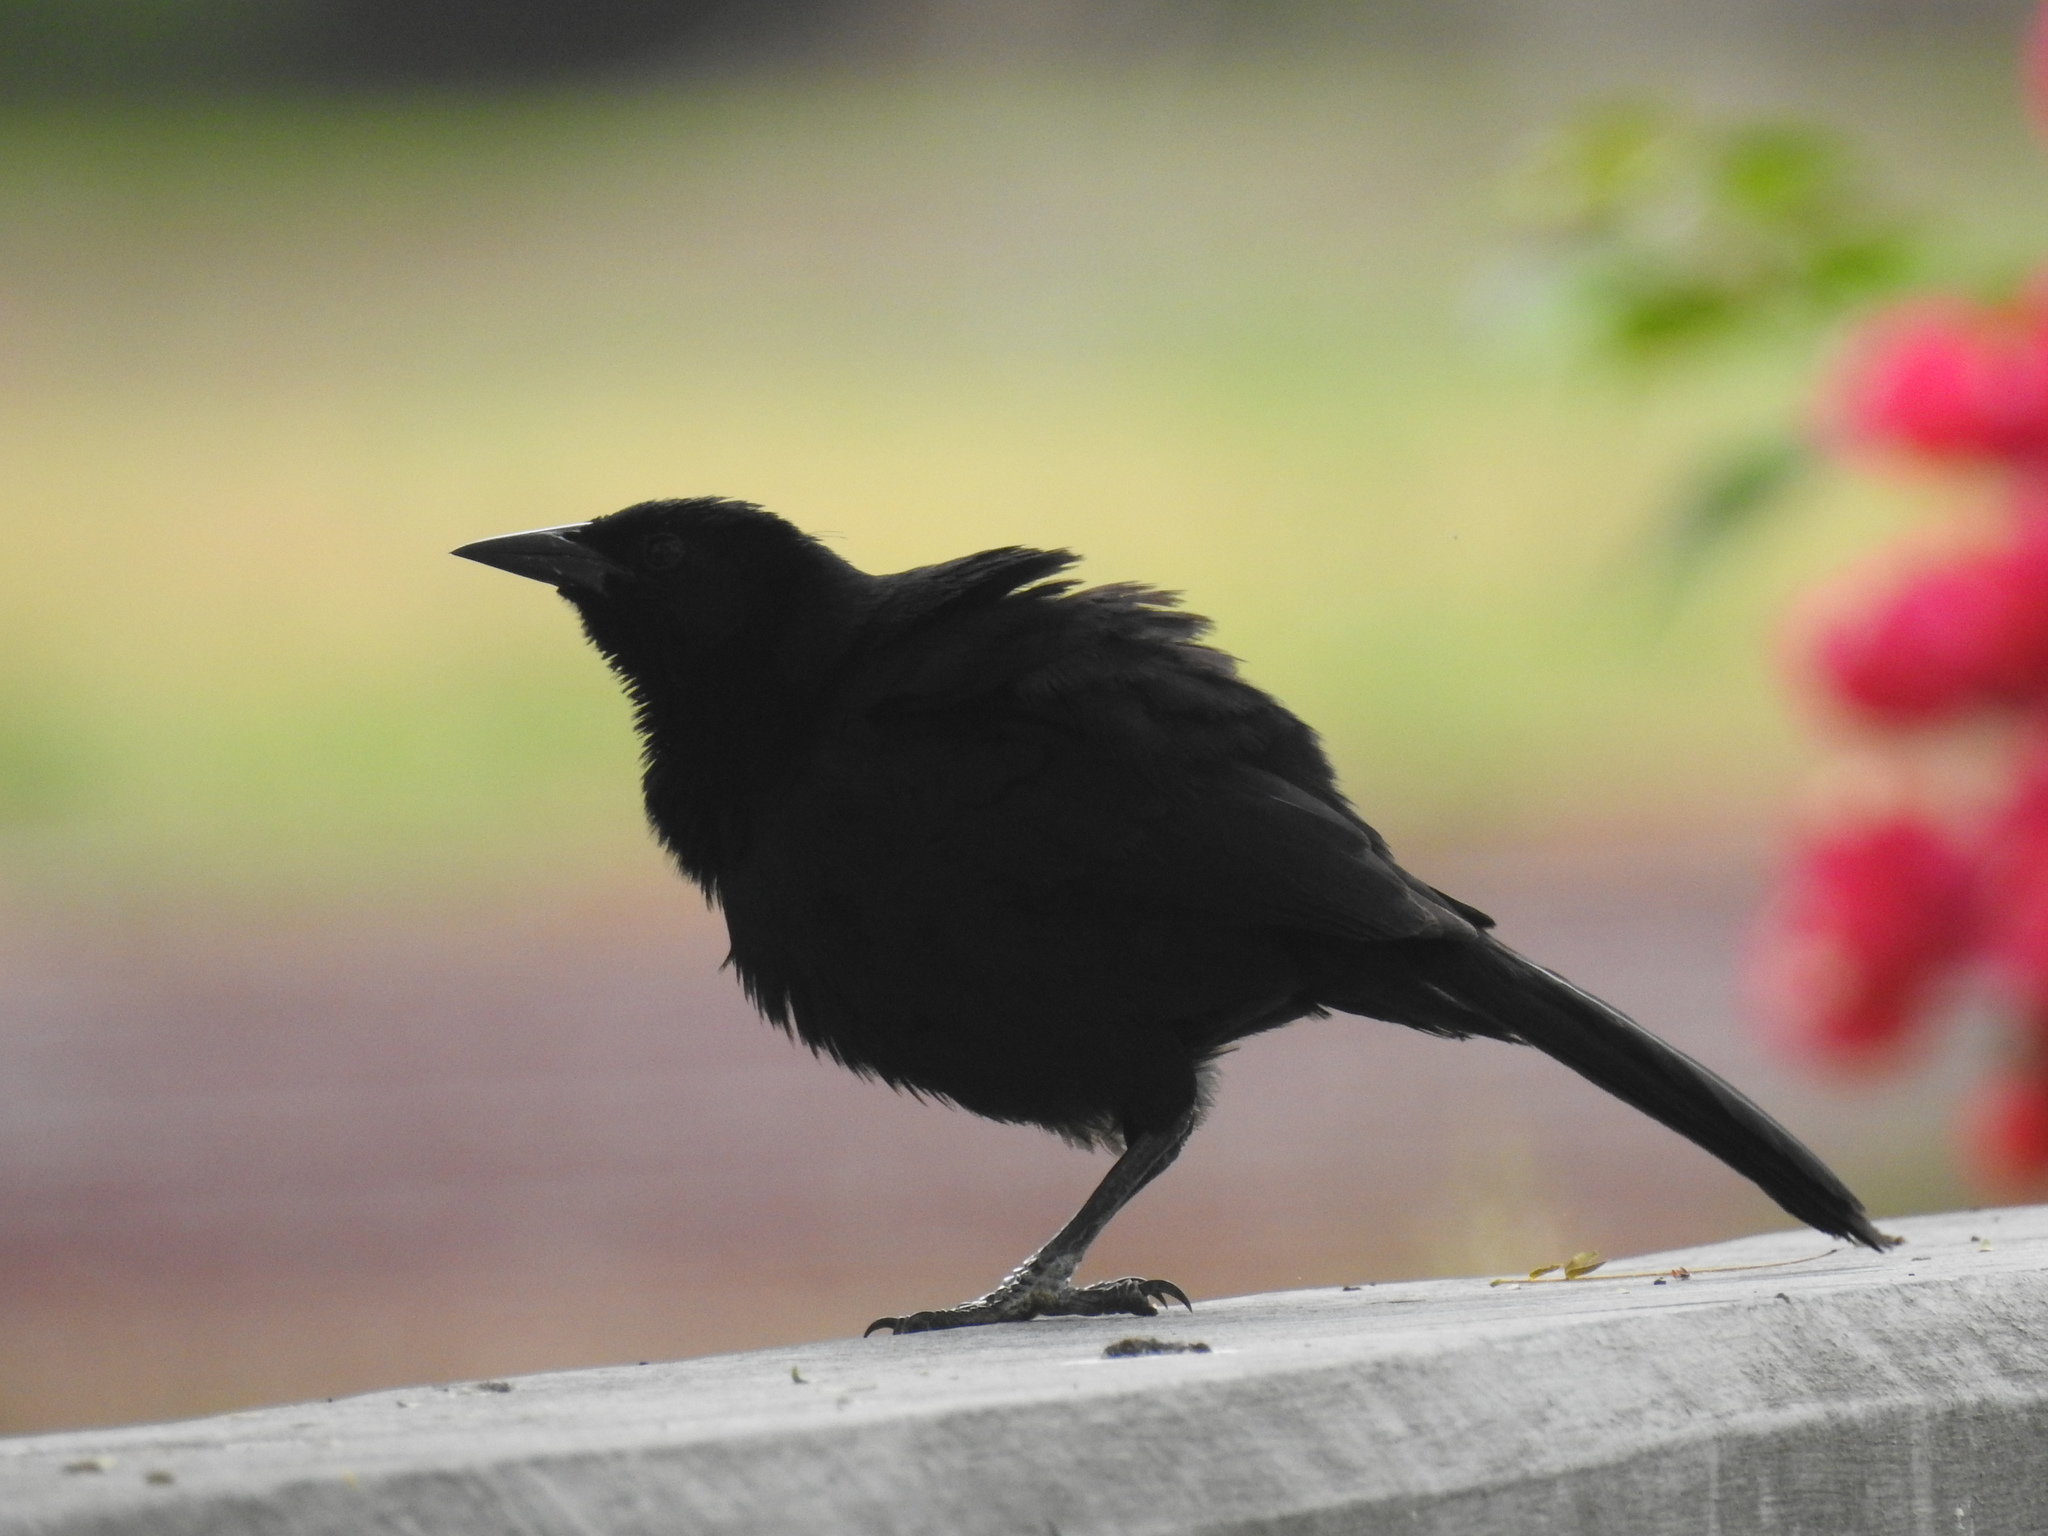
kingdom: Animalia
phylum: Chordata
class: Aves
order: Passeriformes
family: Icteridae
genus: Dives
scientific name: Dives dives
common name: Melodious blackbird
